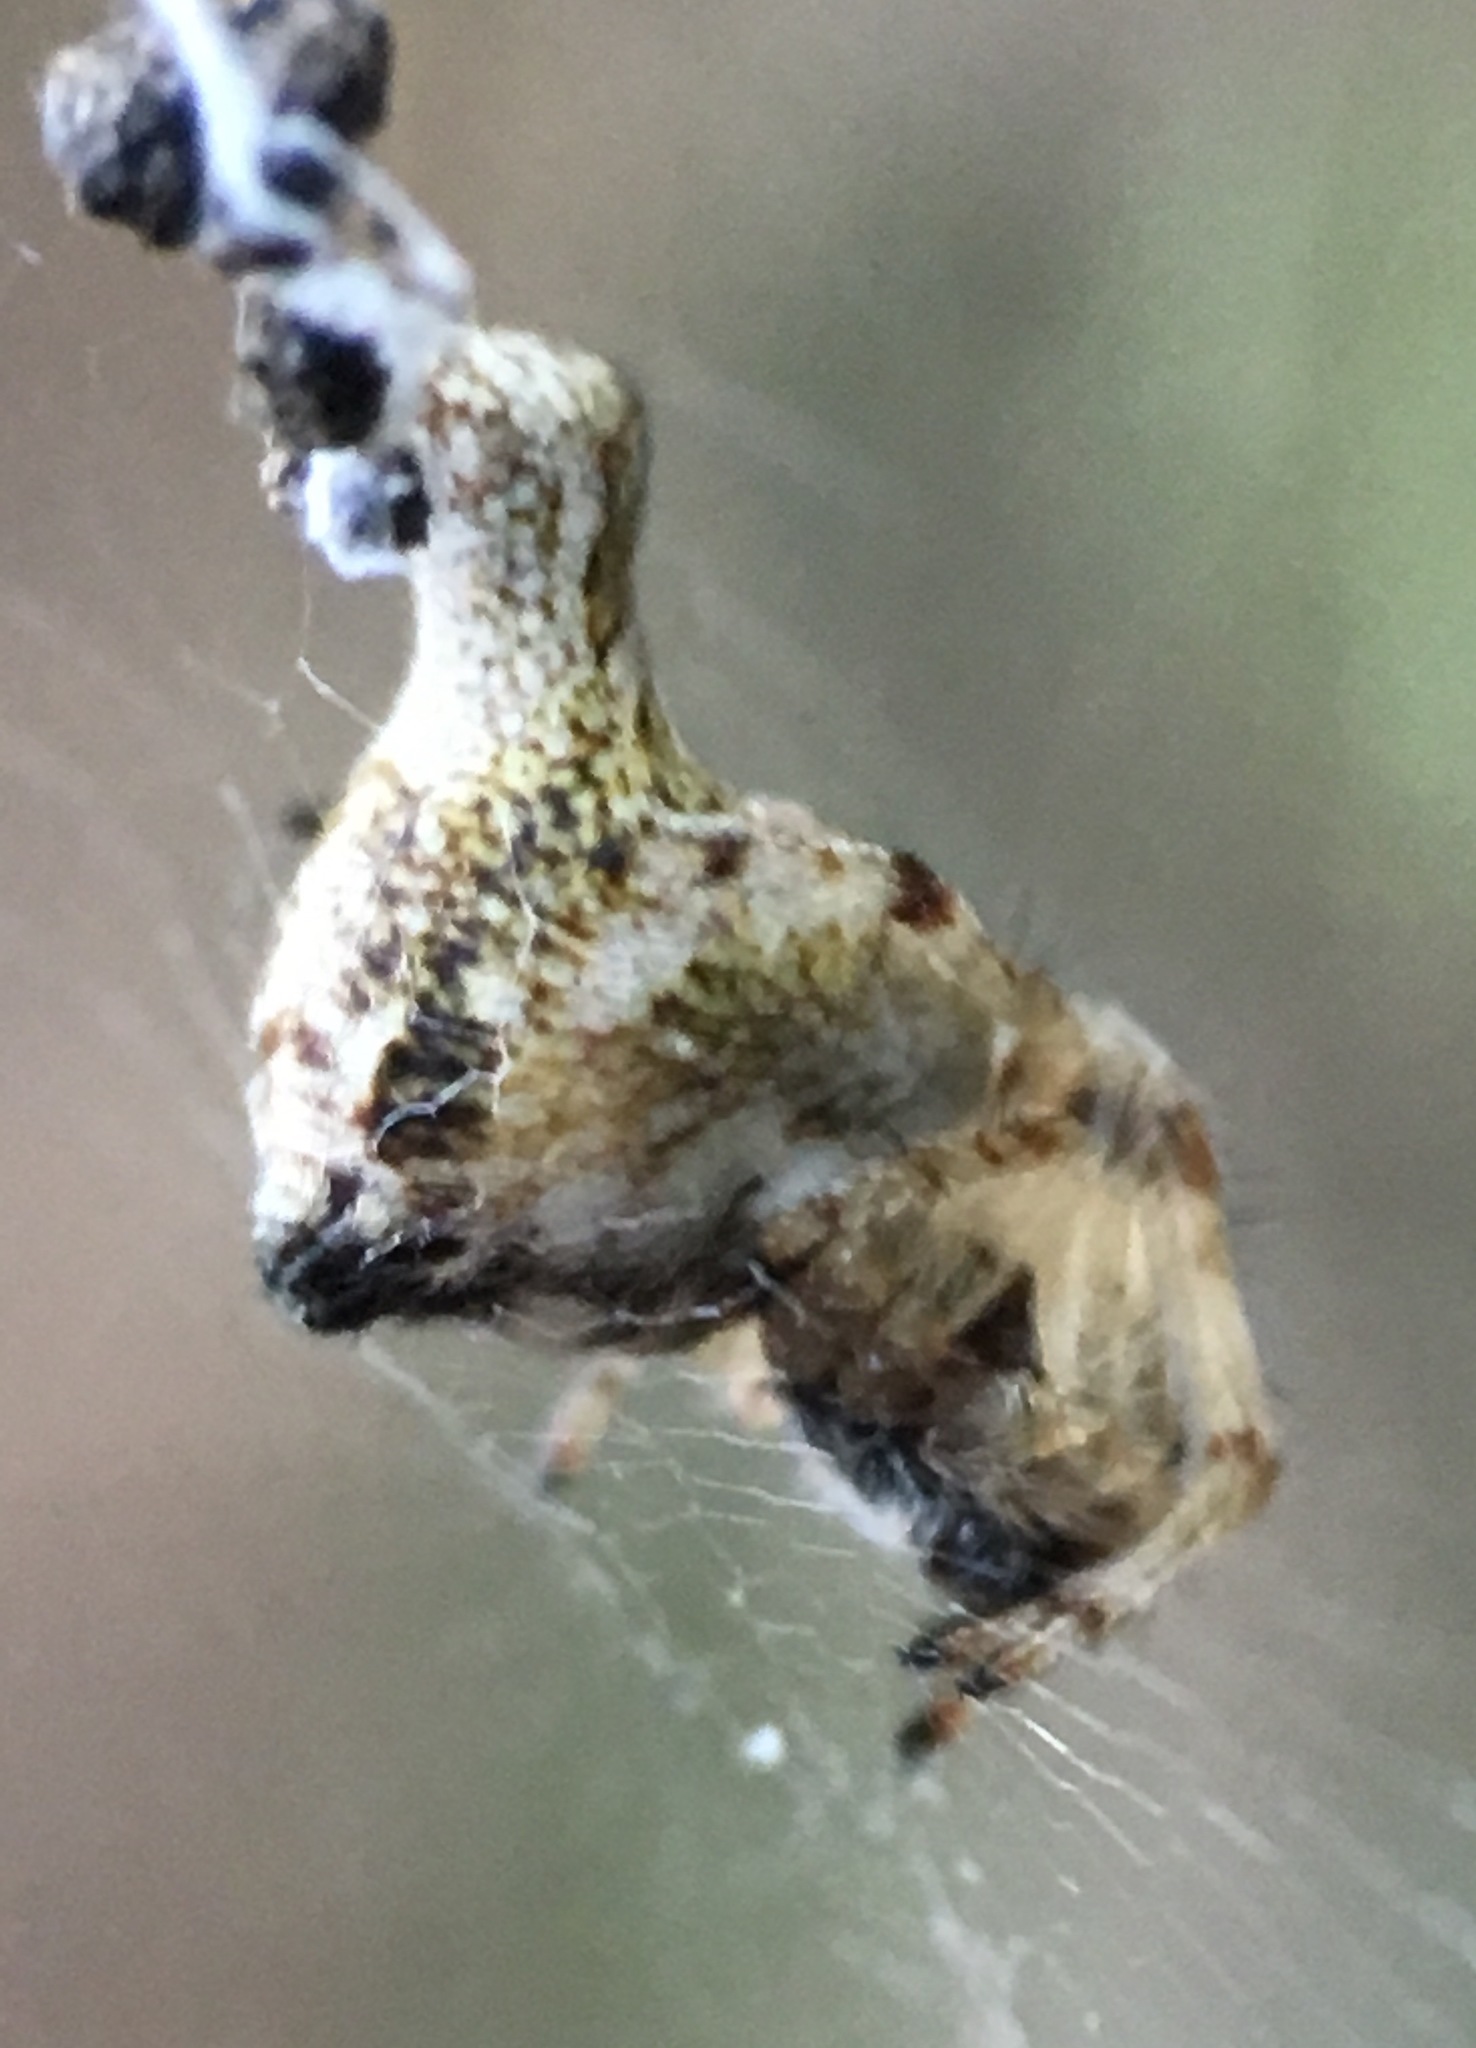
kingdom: Animalia
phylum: Arthropoda
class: Arachnida
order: Araneae
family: Araneidae
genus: Cyclosa
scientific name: Cyclosa conica
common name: Conical trashline orbweaver
